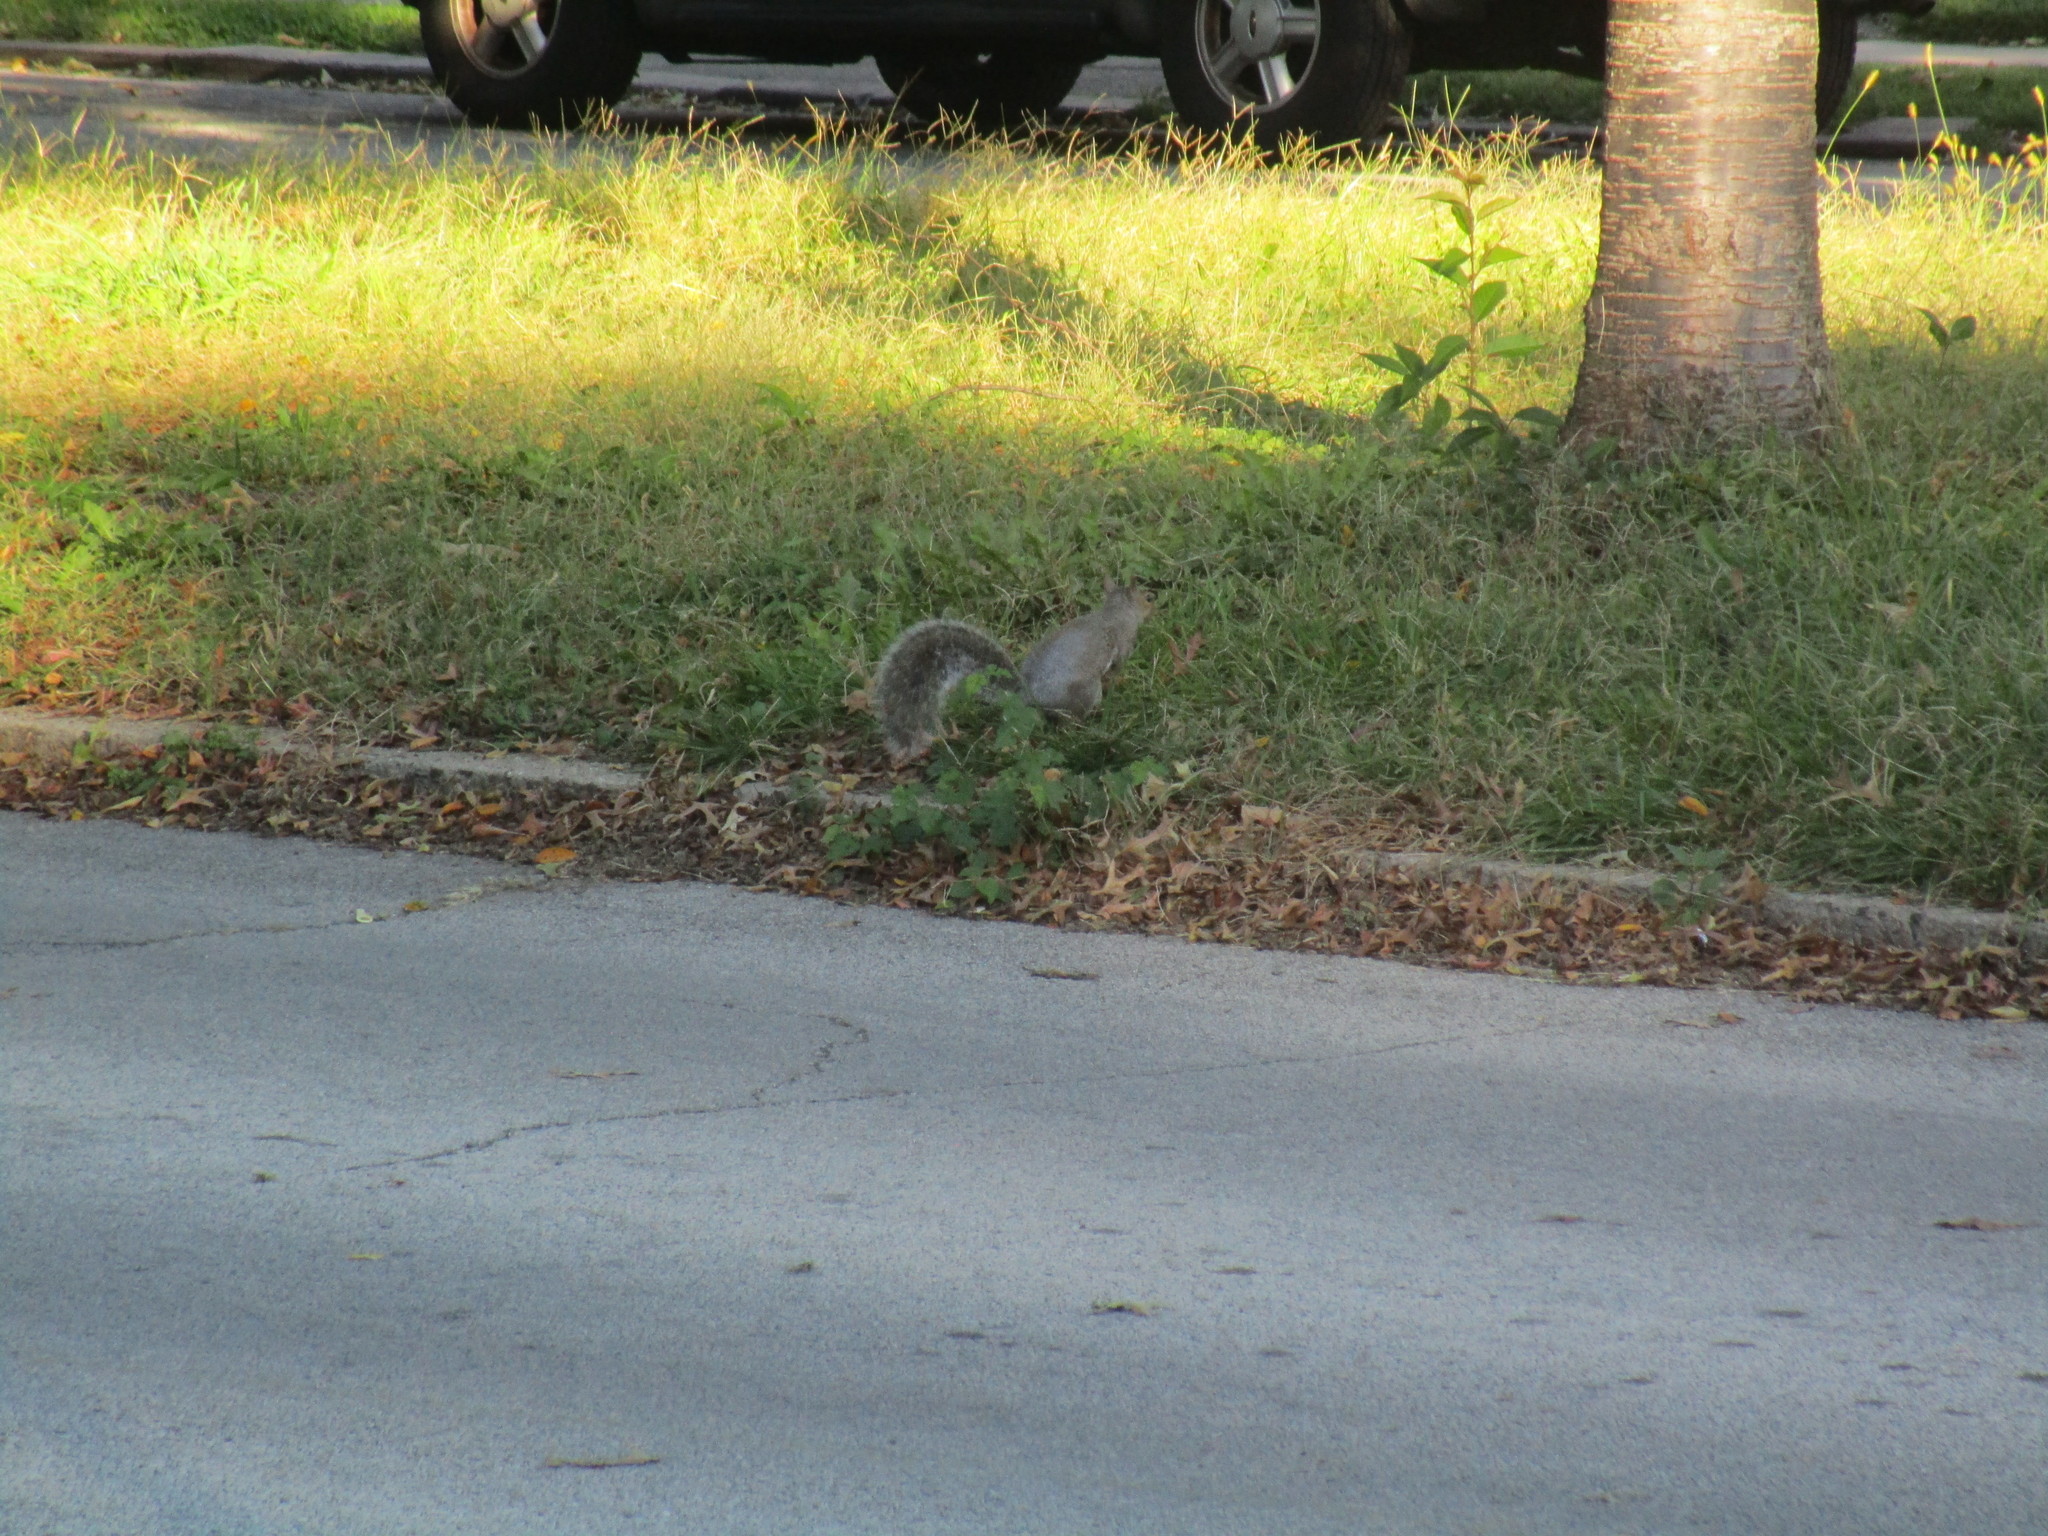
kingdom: Animalia
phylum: Chordata
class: Mammalia
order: Rodentia
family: Sciuridae
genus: Sciurus
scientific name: Sciurus carolinensis
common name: Eastern gray squirrel
